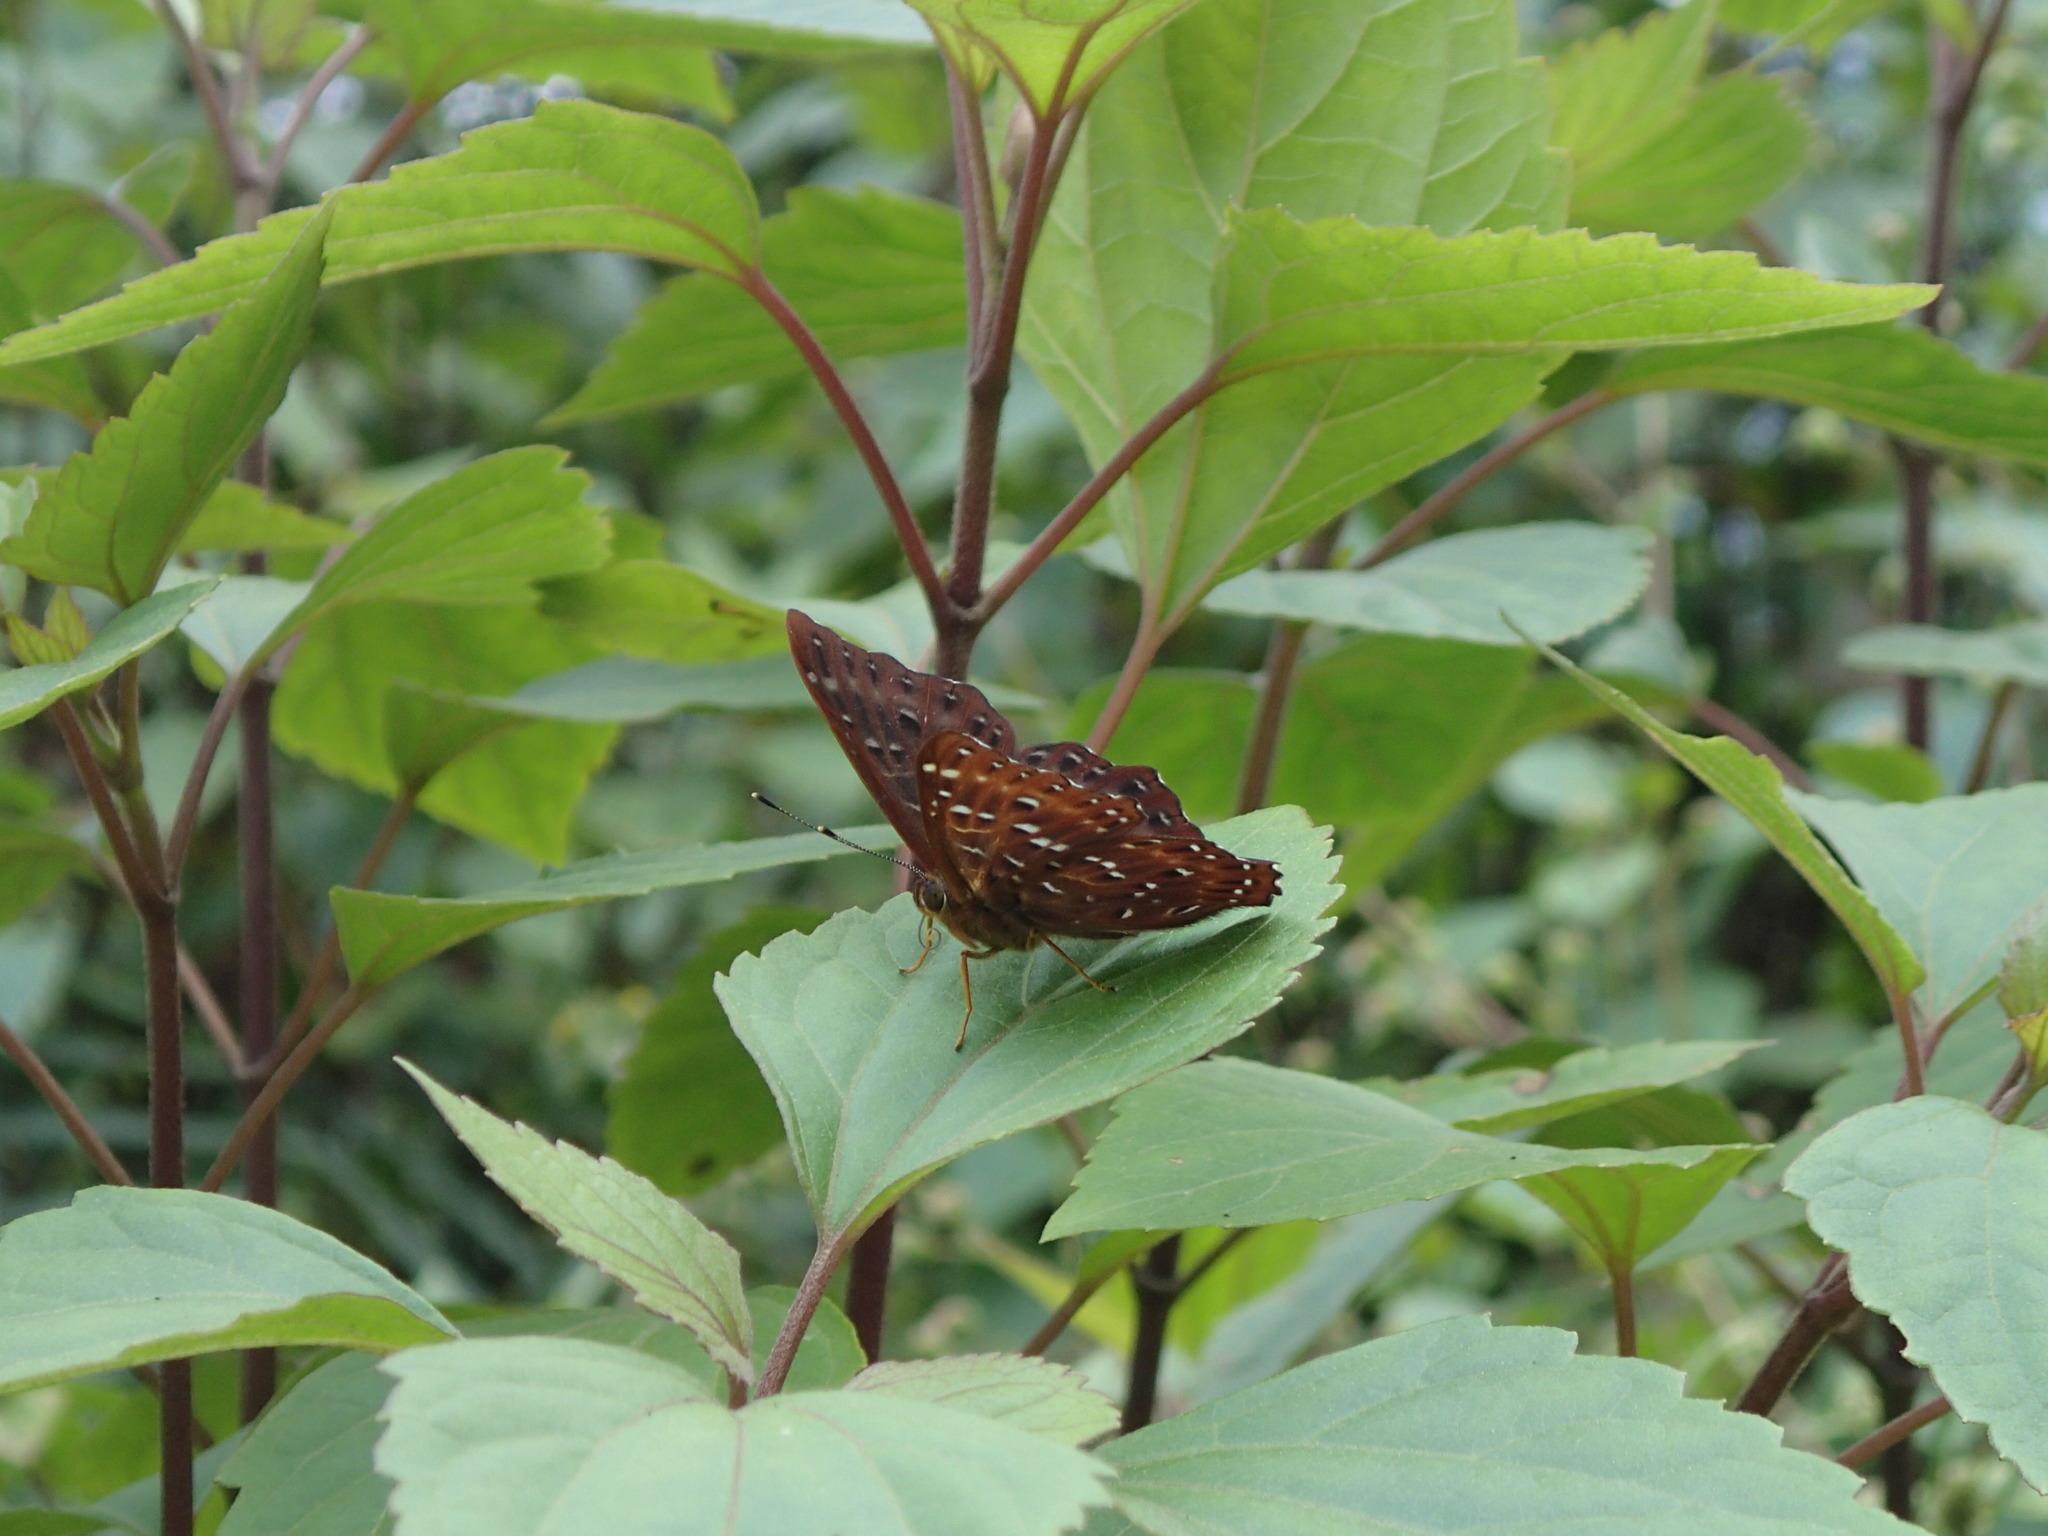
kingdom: Animalia
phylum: Arthropoda
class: Insecta
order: Lepidoptera
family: Riodinidae
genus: Zemeros
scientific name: Zemeros flegyas
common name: Punchinello
